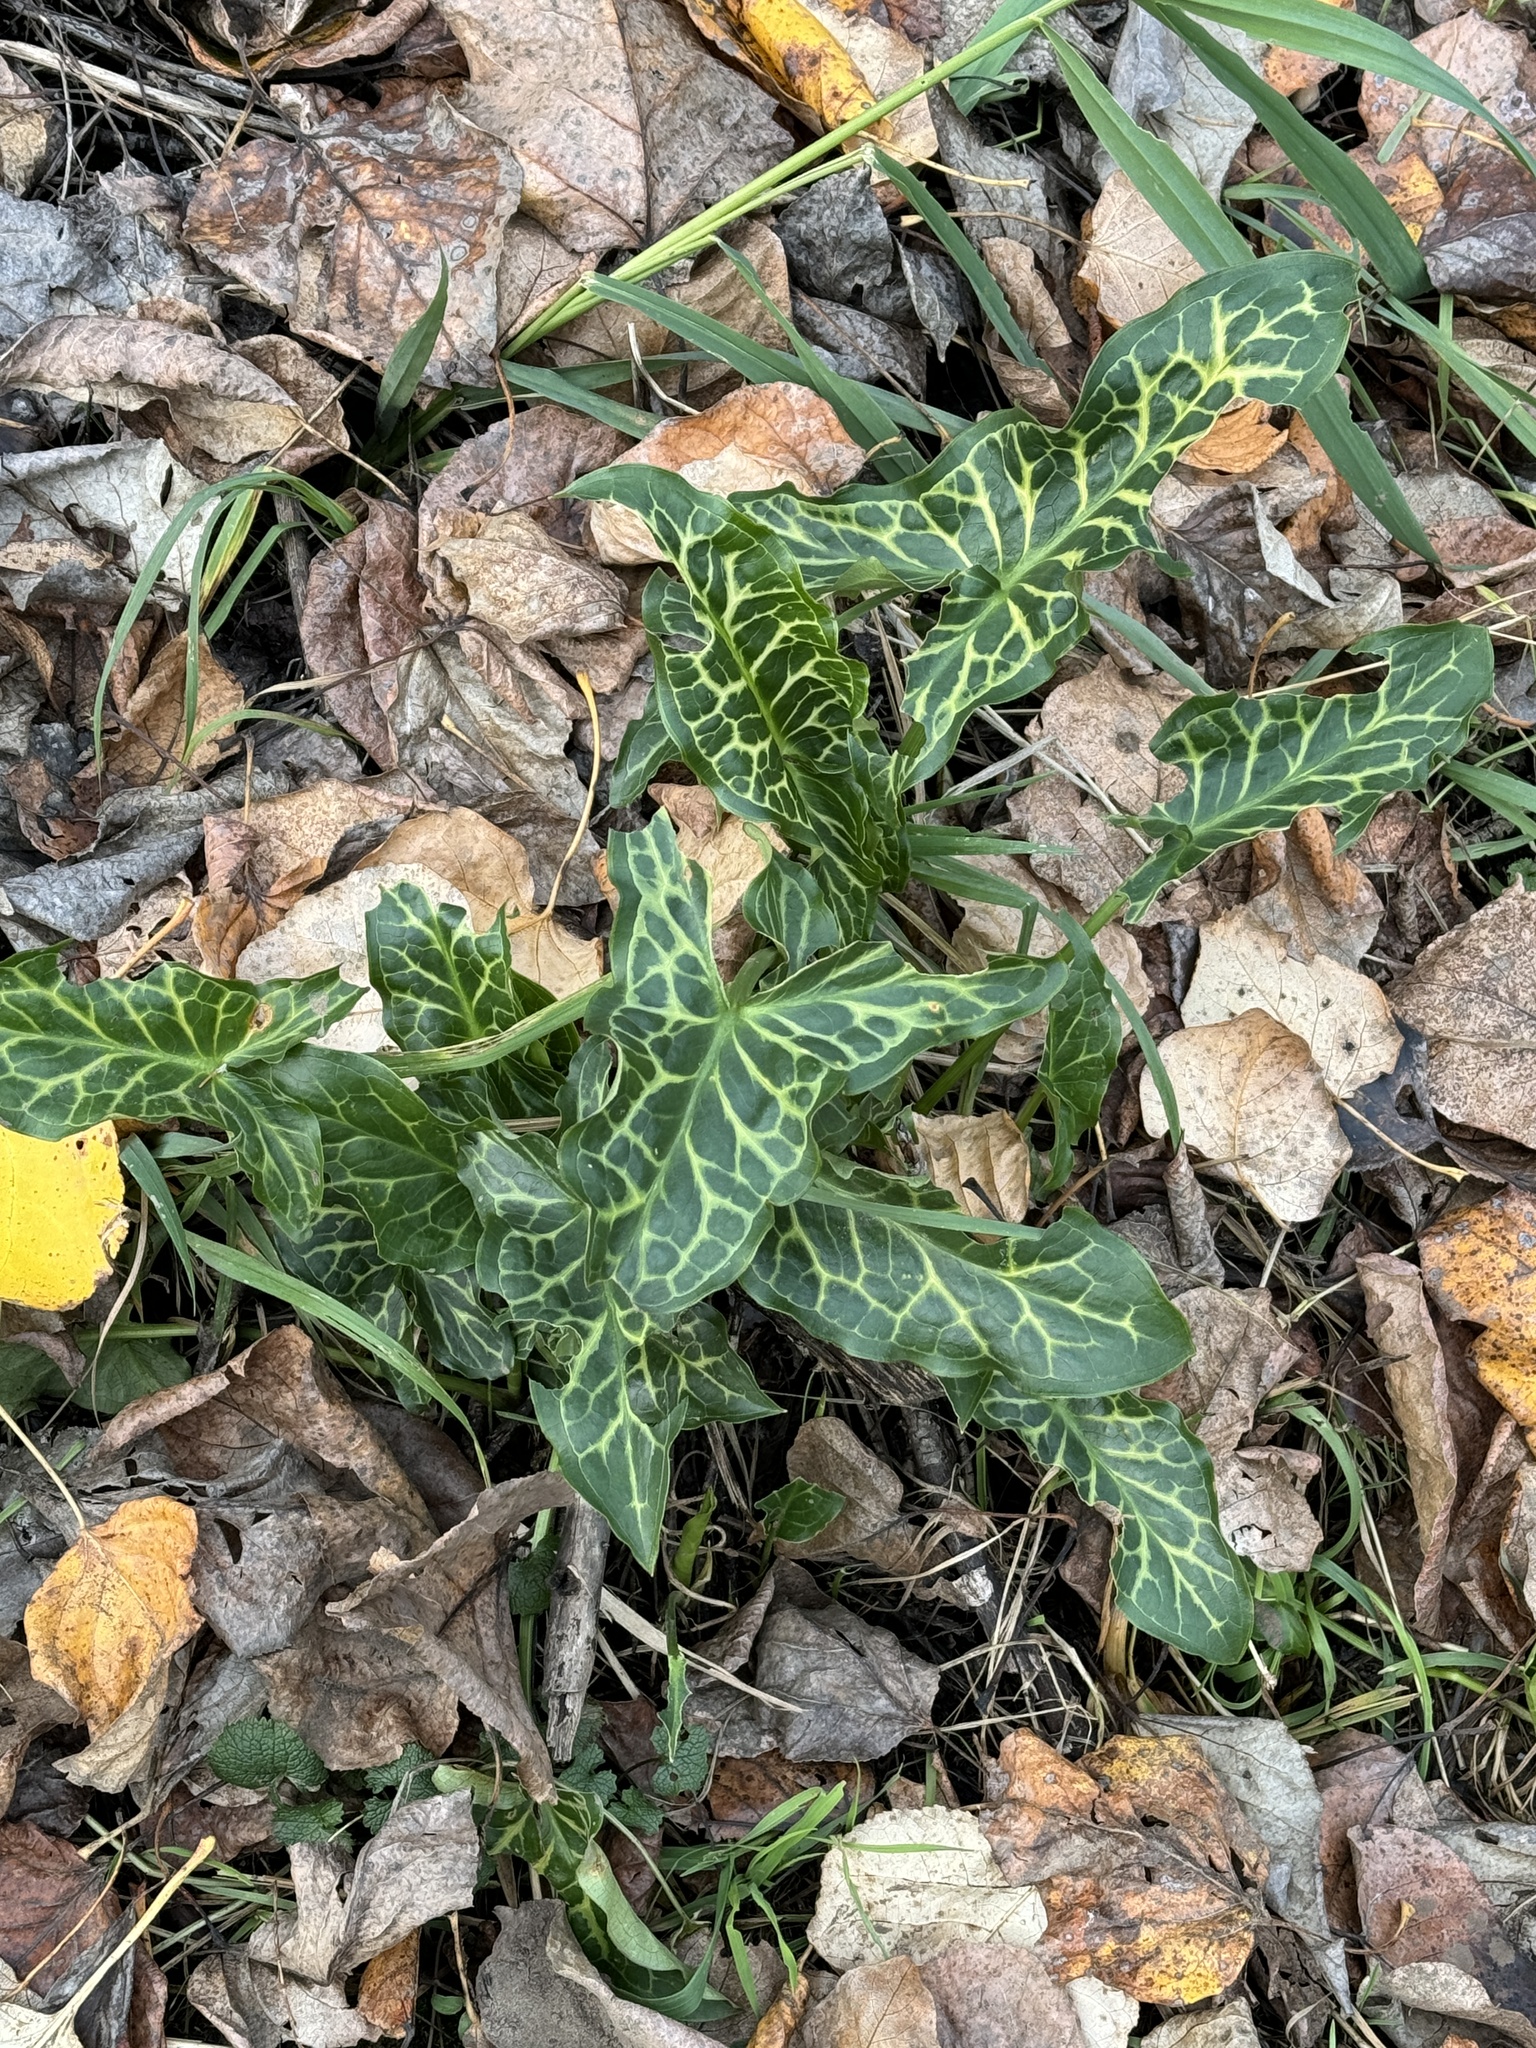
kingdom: Plantae
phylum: Tracheophyta
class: Liliopsida
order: Alismatales
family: Araceae
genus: Arum
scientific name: Arum italicum
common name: Italian lords-and-ladies
